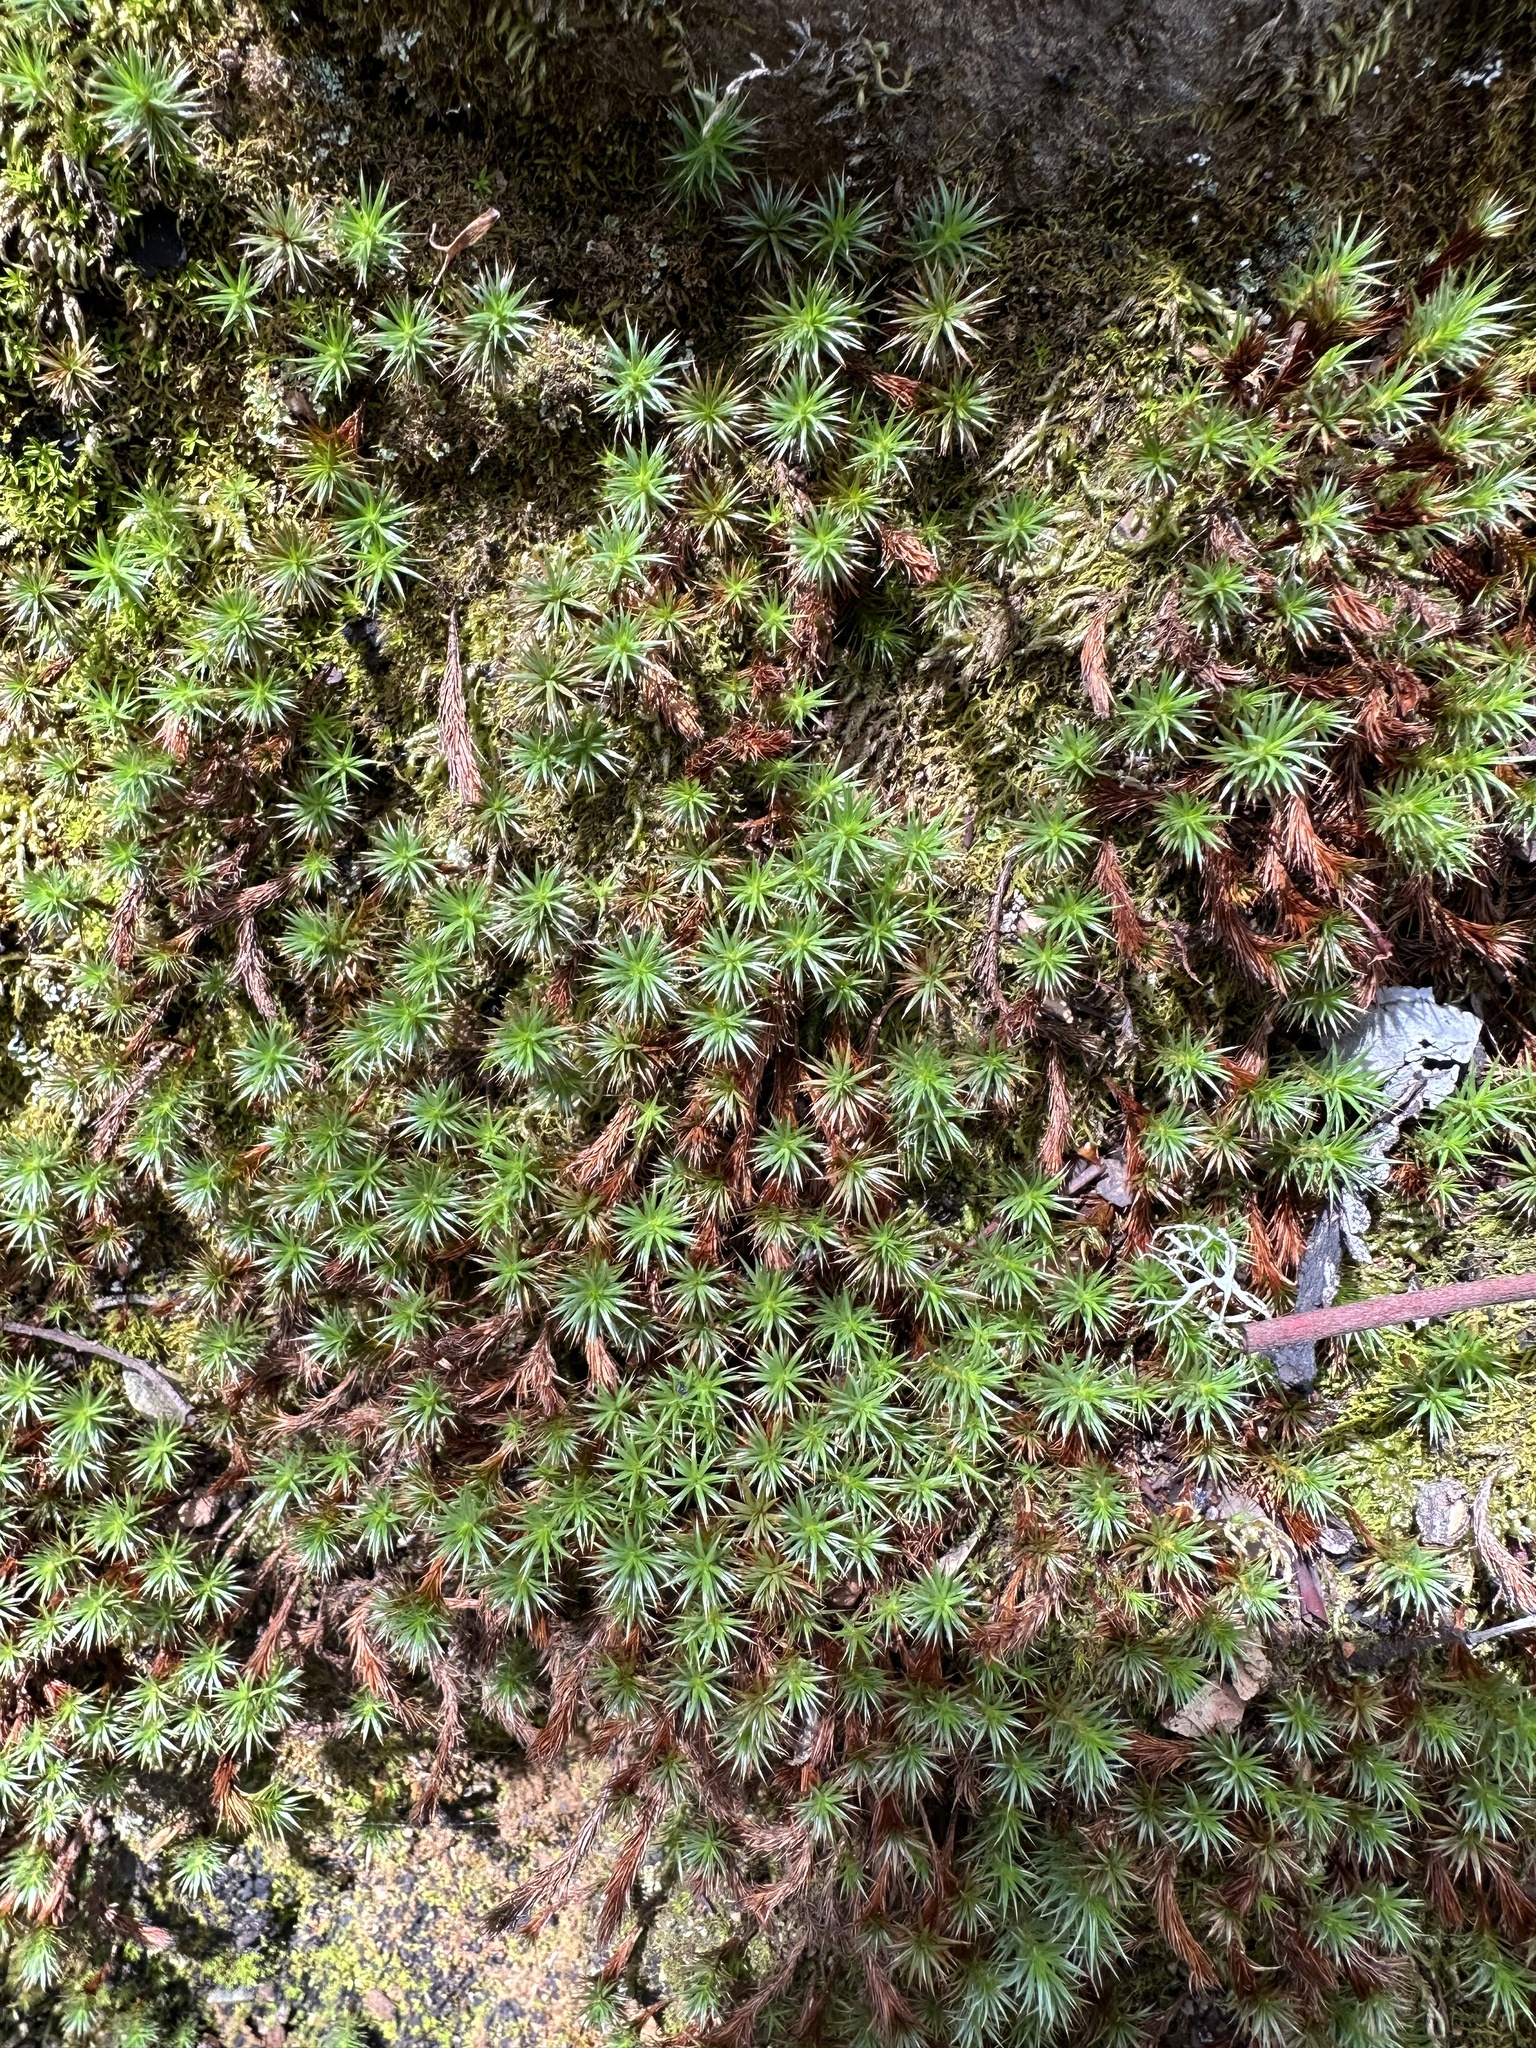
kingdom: Plantae
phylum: Bryophyta
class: Polytrichopsida
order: Polytrichales
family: Polytrichaceae
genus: Polytrichum
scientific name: Polytrichum juniperinum
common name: Juniper haircap moss
